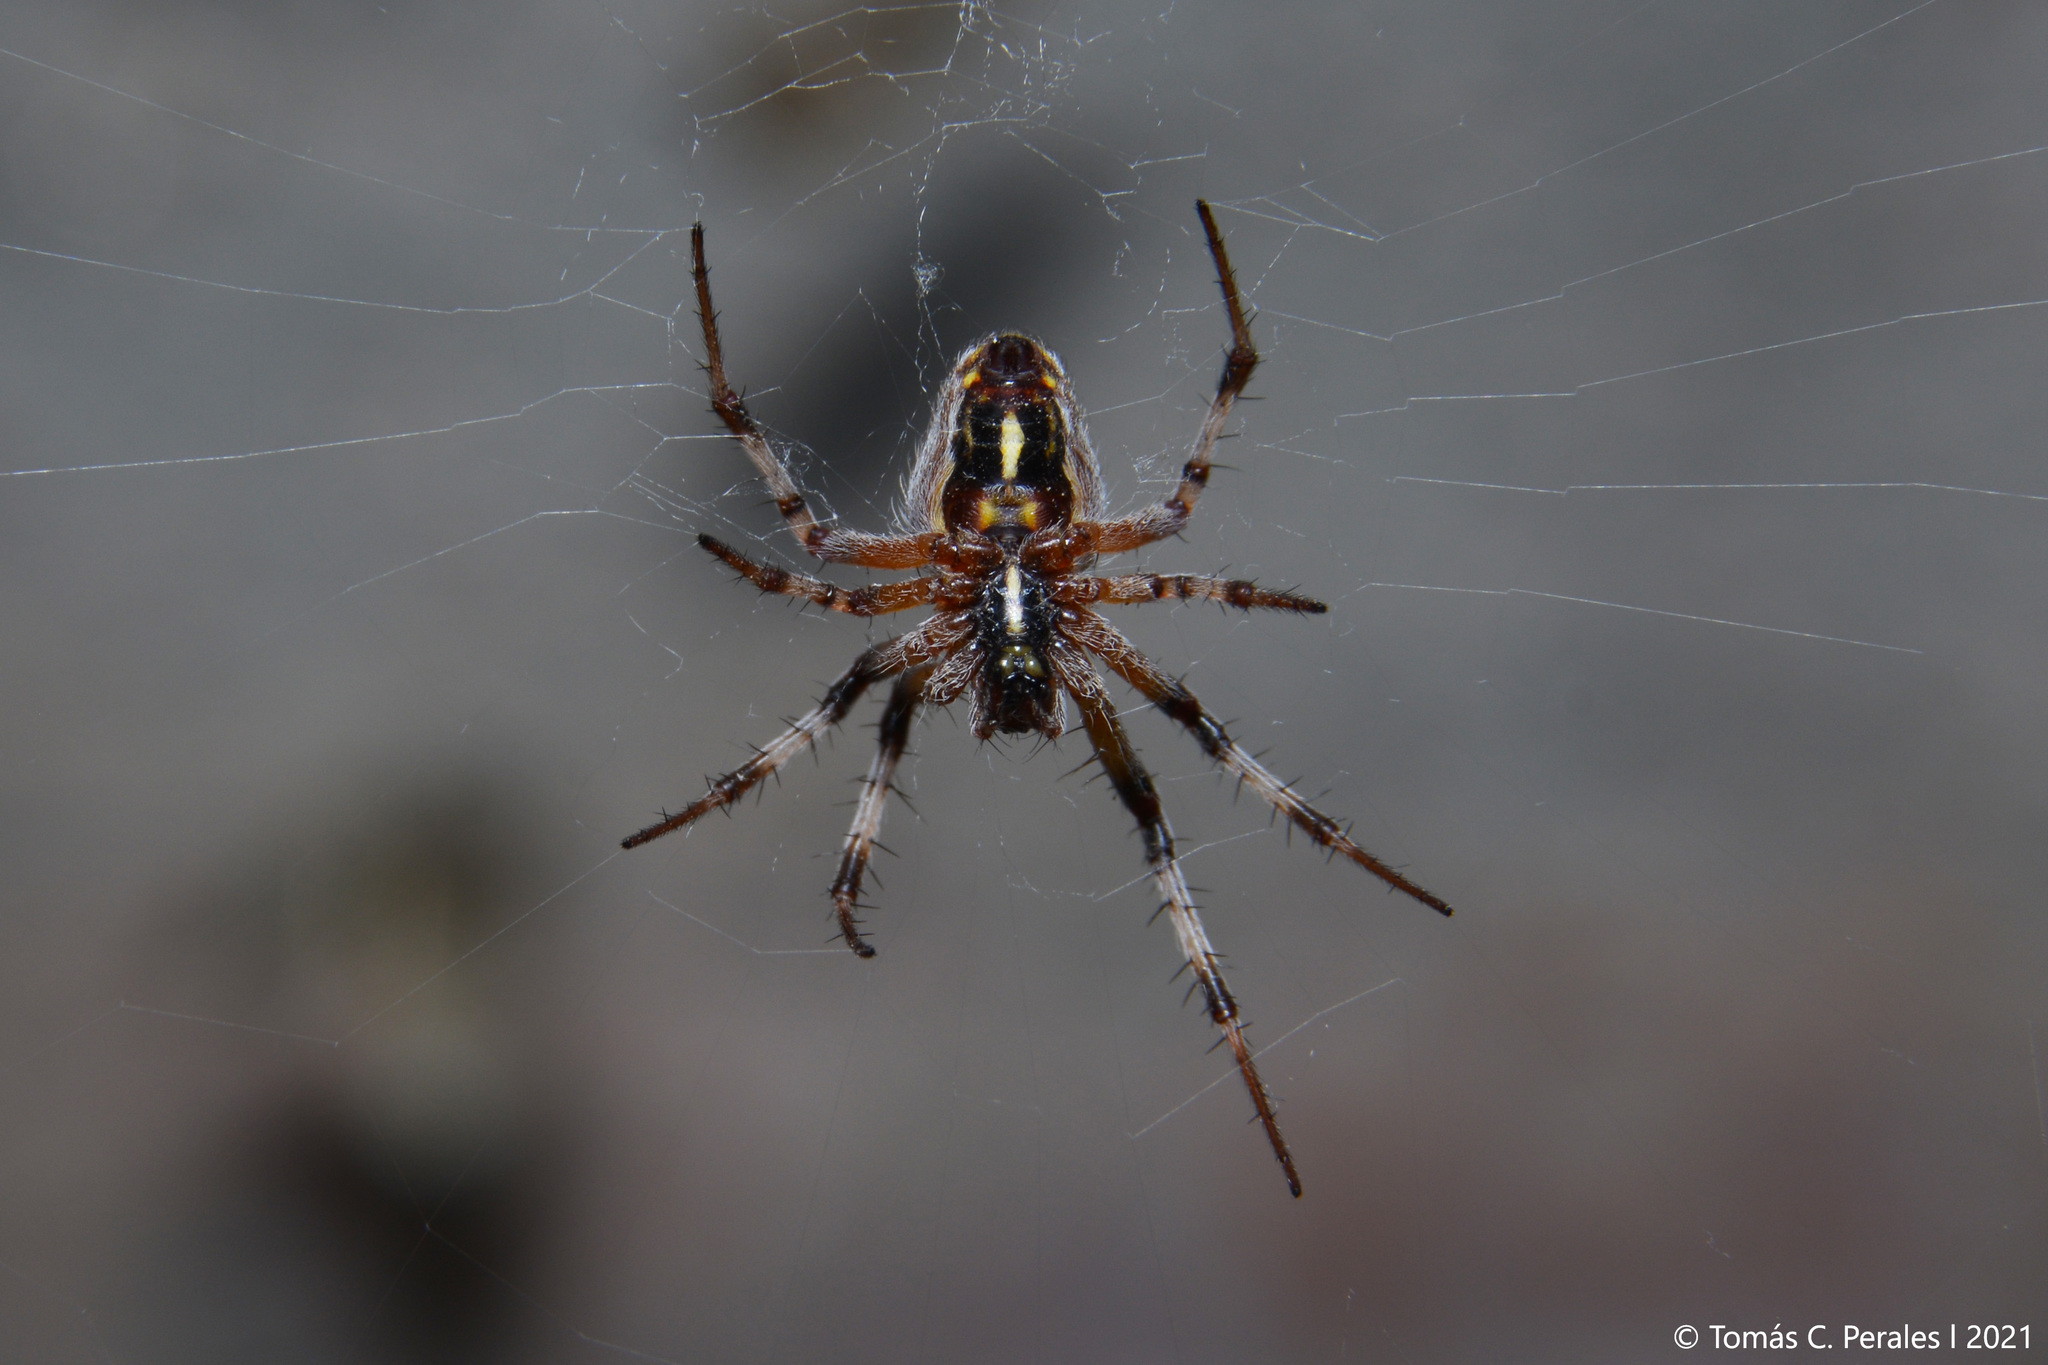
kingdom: Animalia
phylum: Arthropoda
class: Arachnida
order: Araneae
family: Araneidae
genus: Metepeira
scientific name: Metepeira
